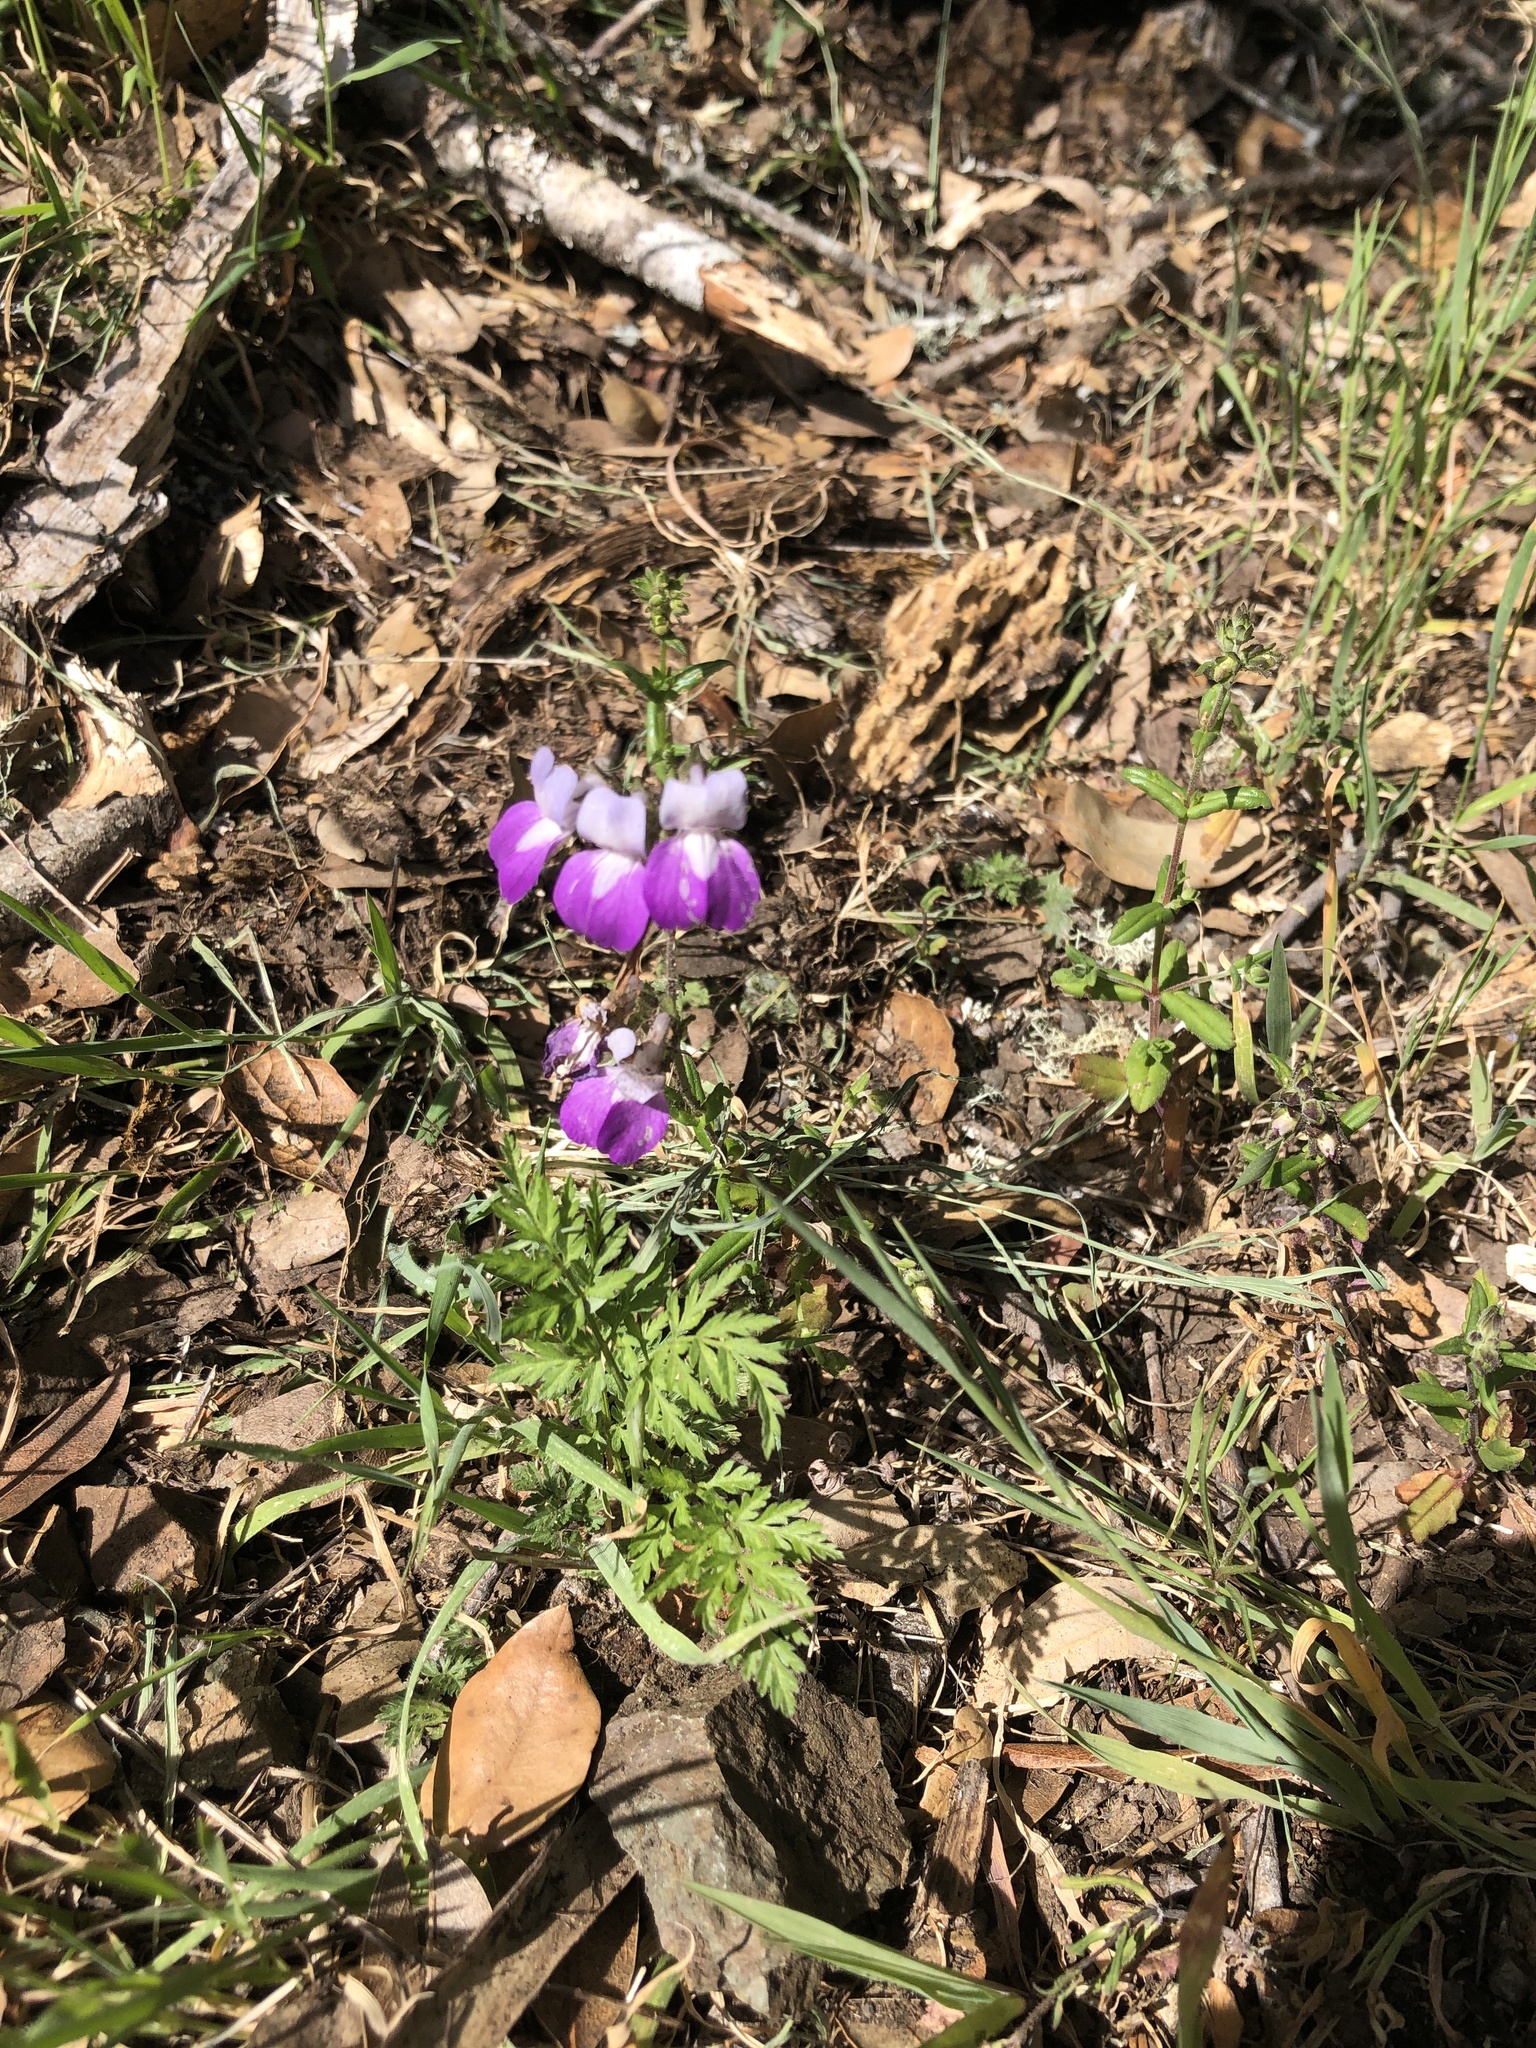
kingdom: Plantae
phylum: Tracheophyta
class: Magnoliopsida
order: Lamiales
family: Plantaginaceae
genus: Collinsia
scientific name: Collinsia heterophylla
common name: Chinese-houses
